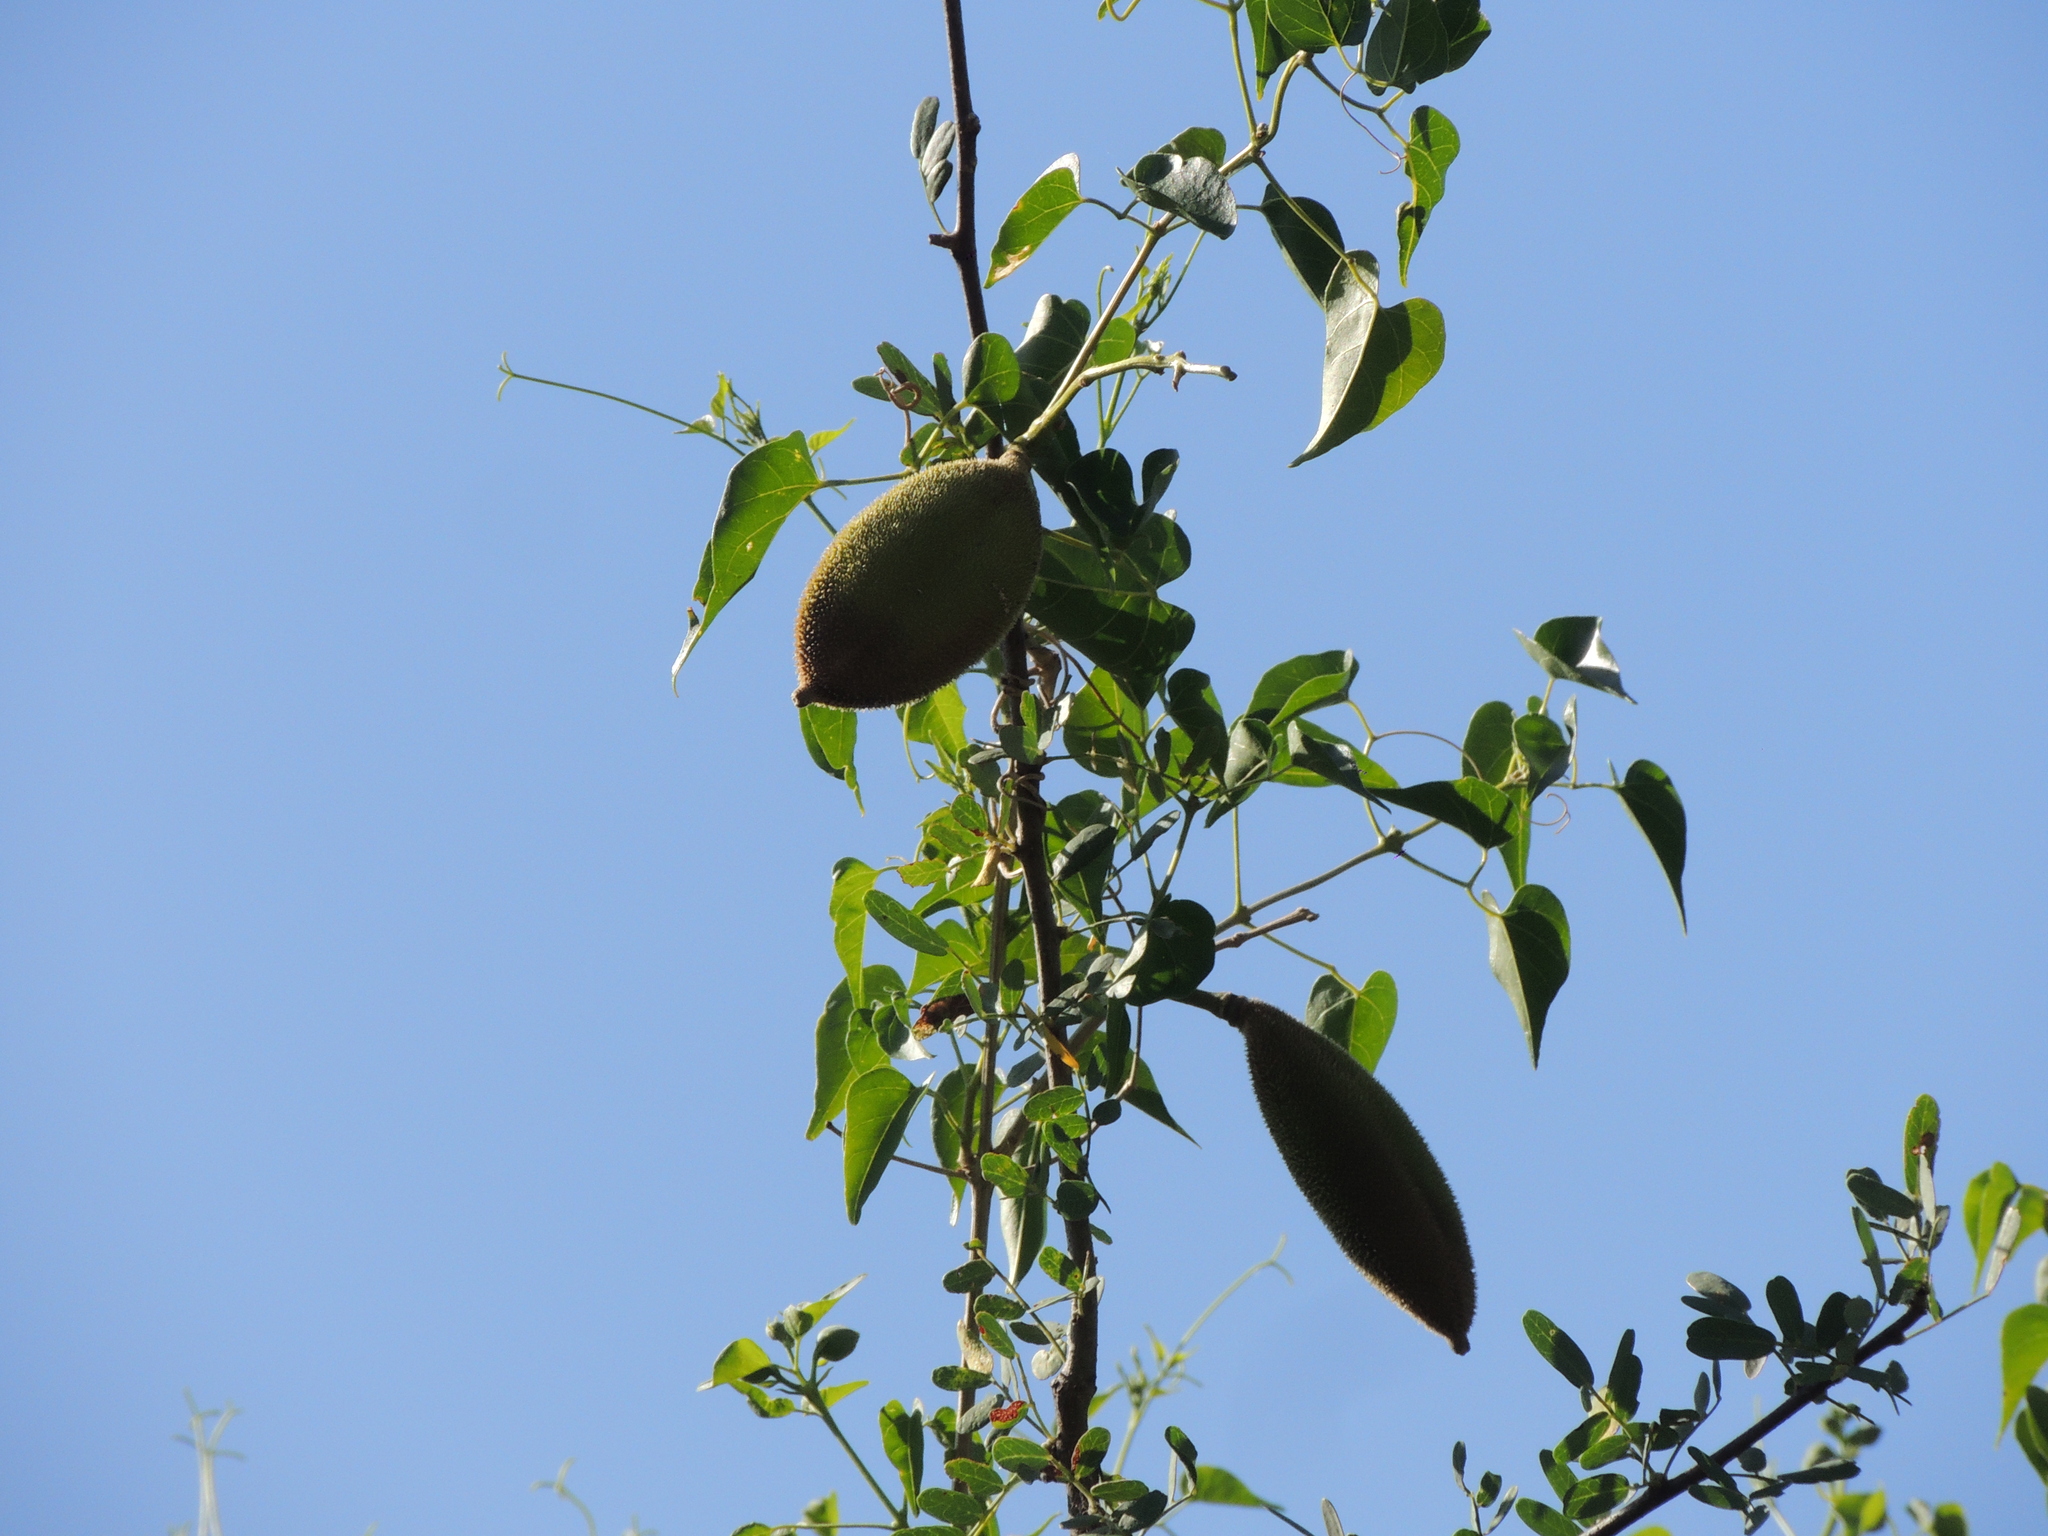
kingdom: Plantae
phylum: Tracheophyta
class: Magnoliopsida
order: Lamiales
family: Bignoniaceae
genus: Amphilophium
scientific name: Amphilophium carolinae
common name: Monkey's-comb
